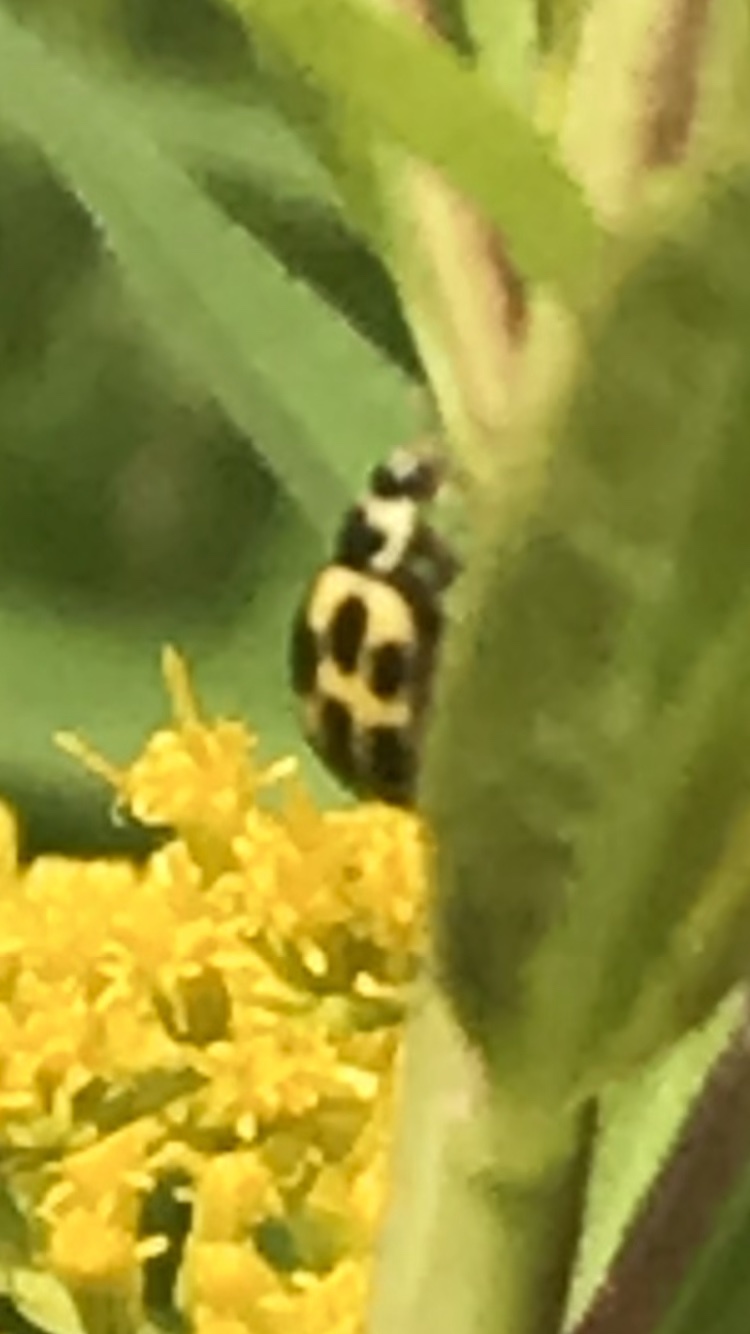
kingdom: Animalia
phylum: Arthropoda
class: Insecta
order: Coleoptera
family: Coccinellidae
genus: Propylaea
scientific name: Propylaea quatuordecimpunctata
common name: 14-spotted ladybird beetle
